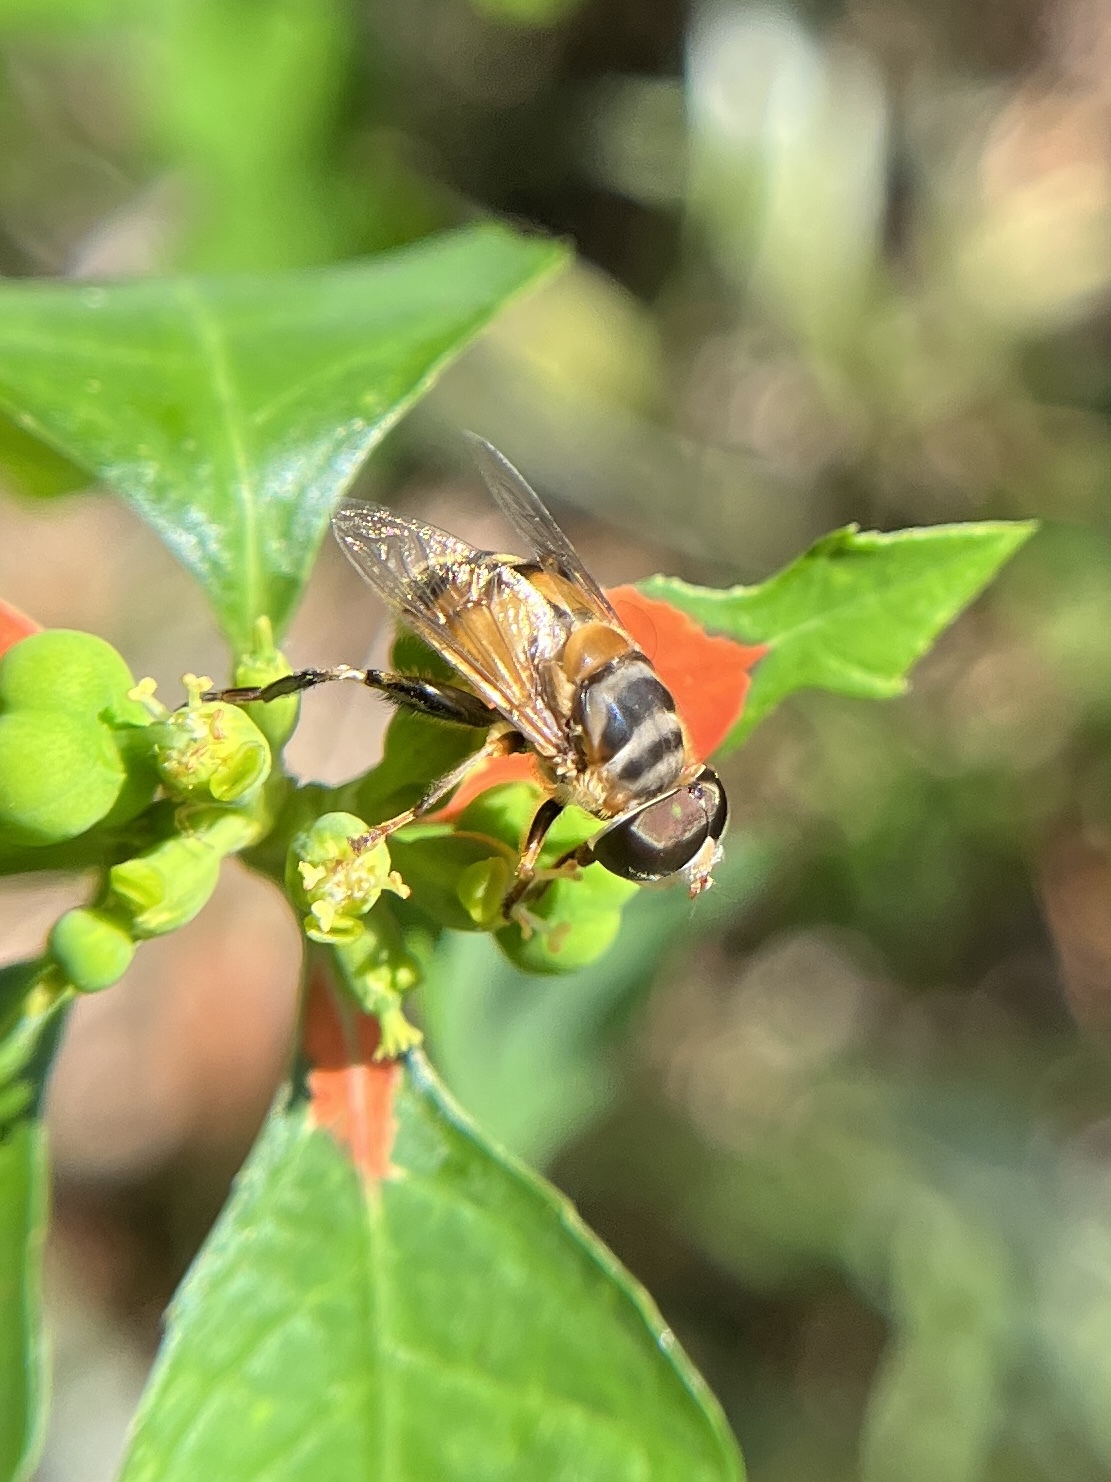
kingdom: Animalia
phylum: Arthropoda
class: Insecta
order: Diptera
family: Syrphidae
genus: Palpada
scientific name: Palpada vinetorum
